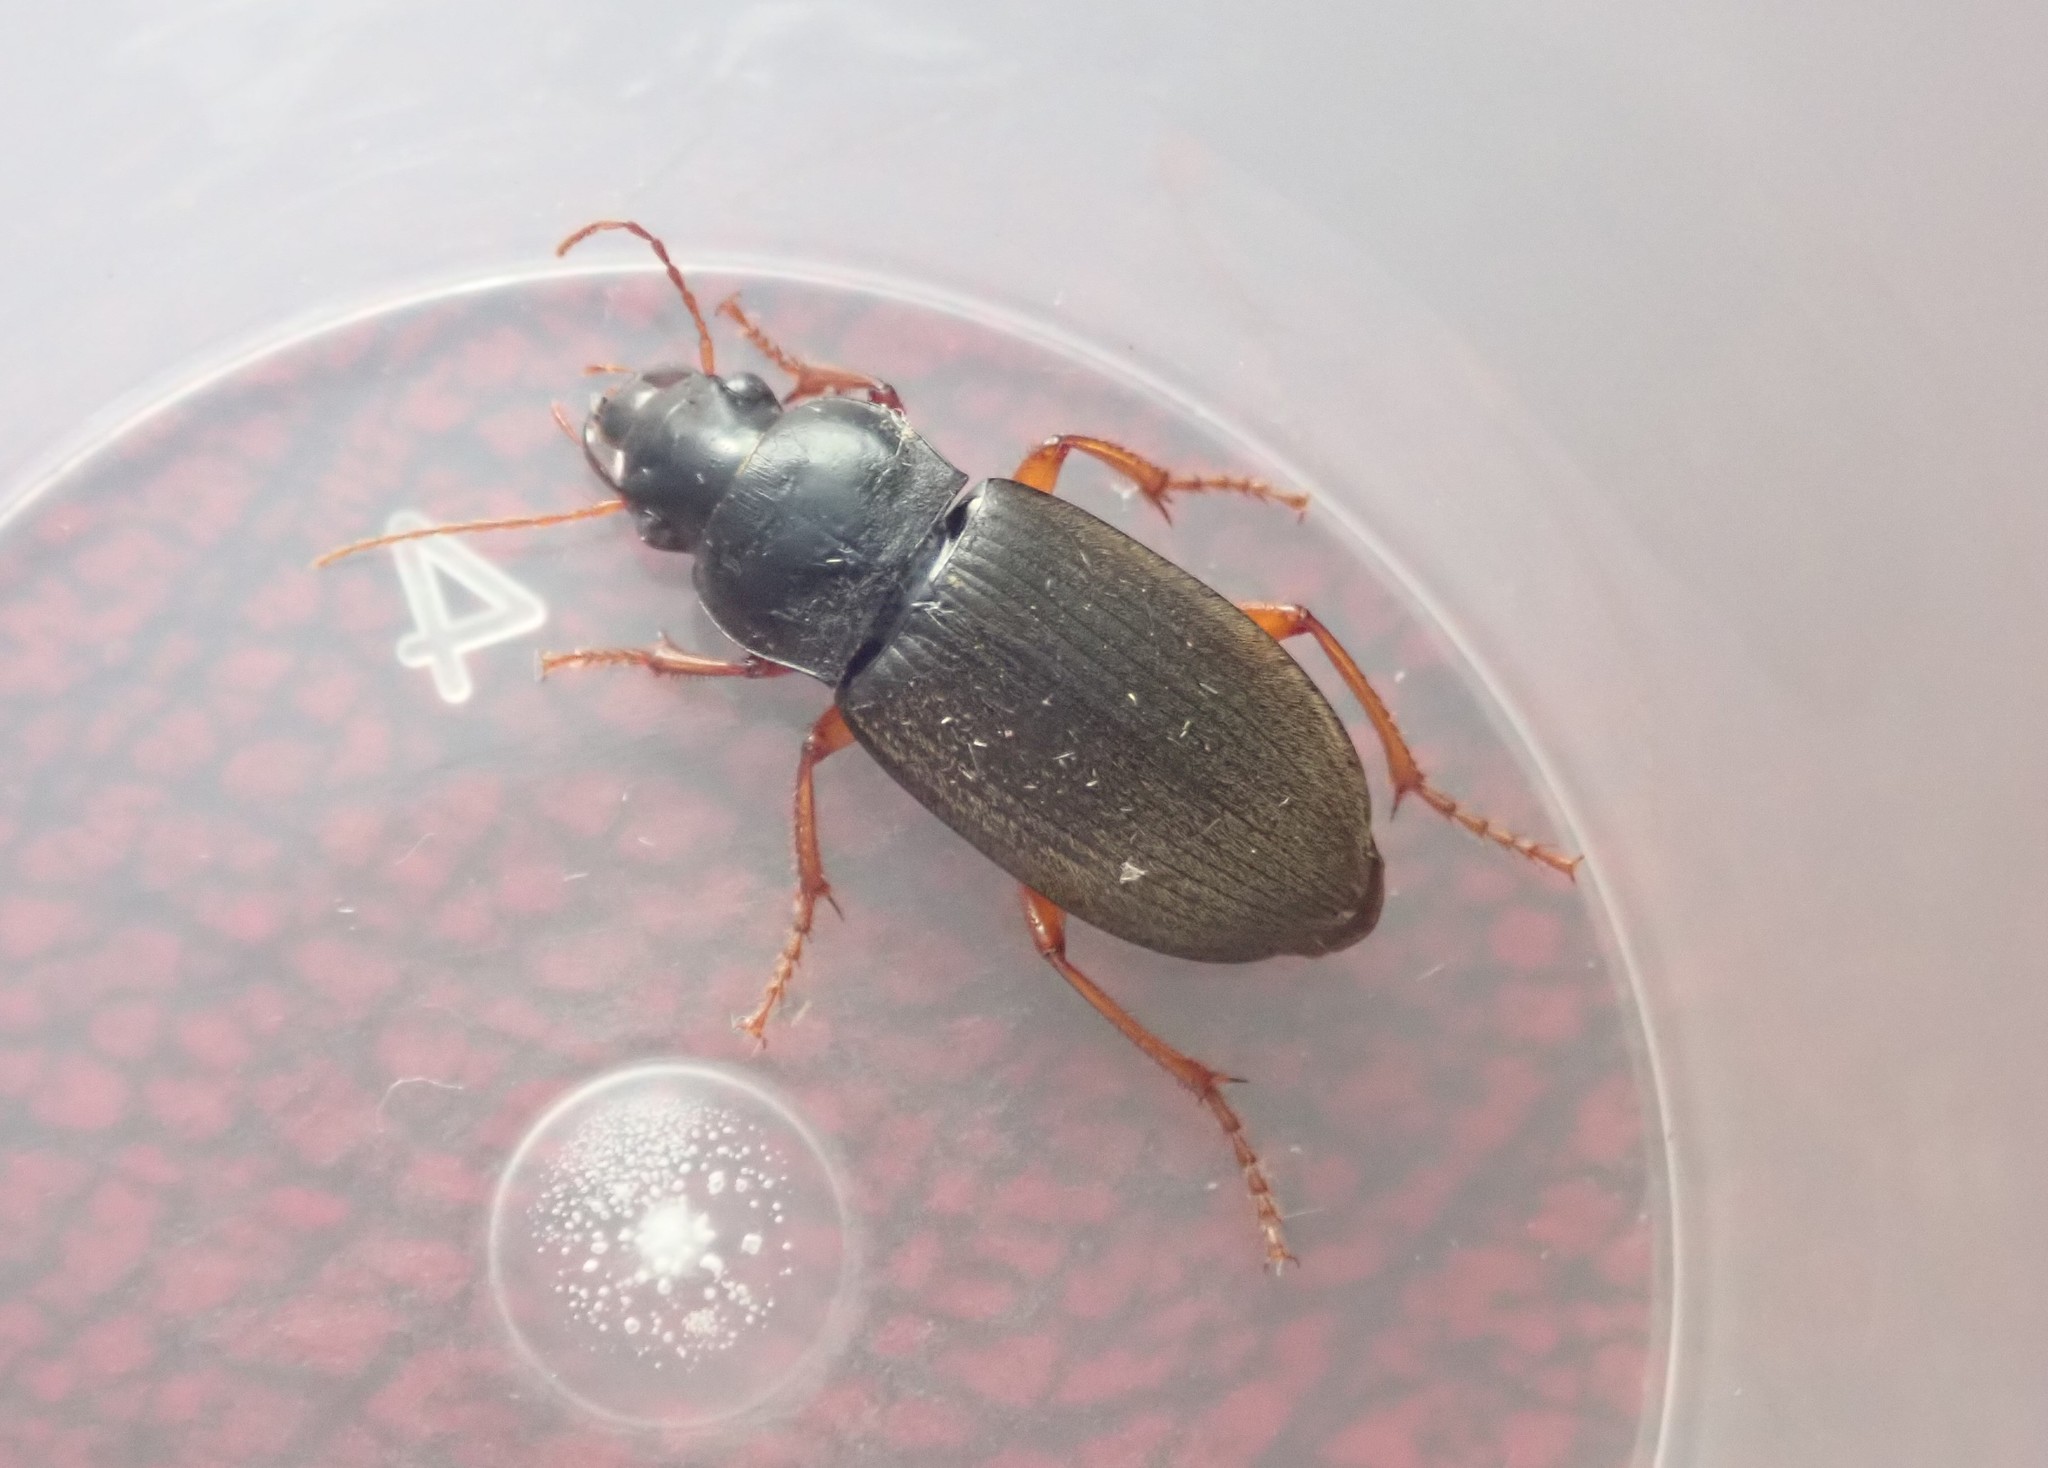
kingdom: Animalia
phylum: Arthropoda
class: Insecta
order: Coleoptera
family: Carabidae
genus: Harpalus
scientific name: Harpalus rufipes
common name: Strawberry harp ground beetle
